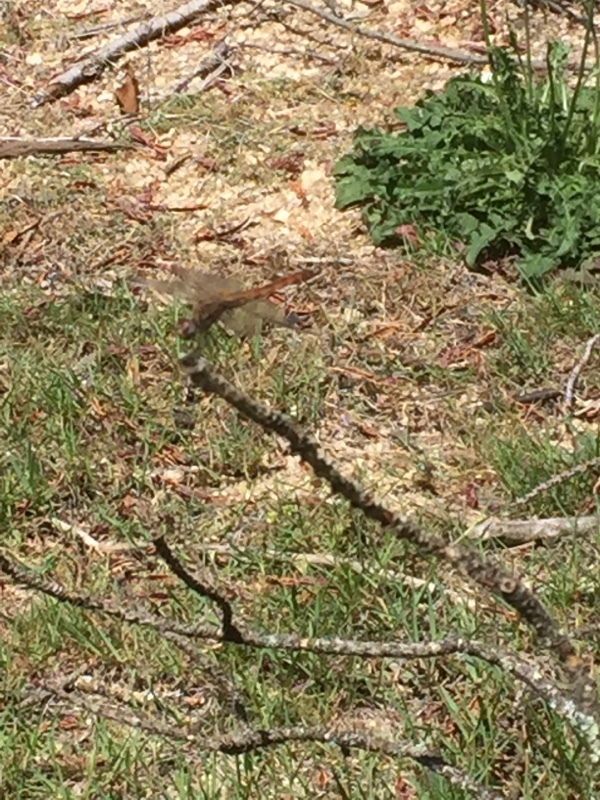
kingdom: Animalia
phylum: Arthropoda
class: Insecta
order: Odonata
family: Libellulidae
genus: Trithemis
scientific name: Trithemis annulata
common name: Violet dropwing
